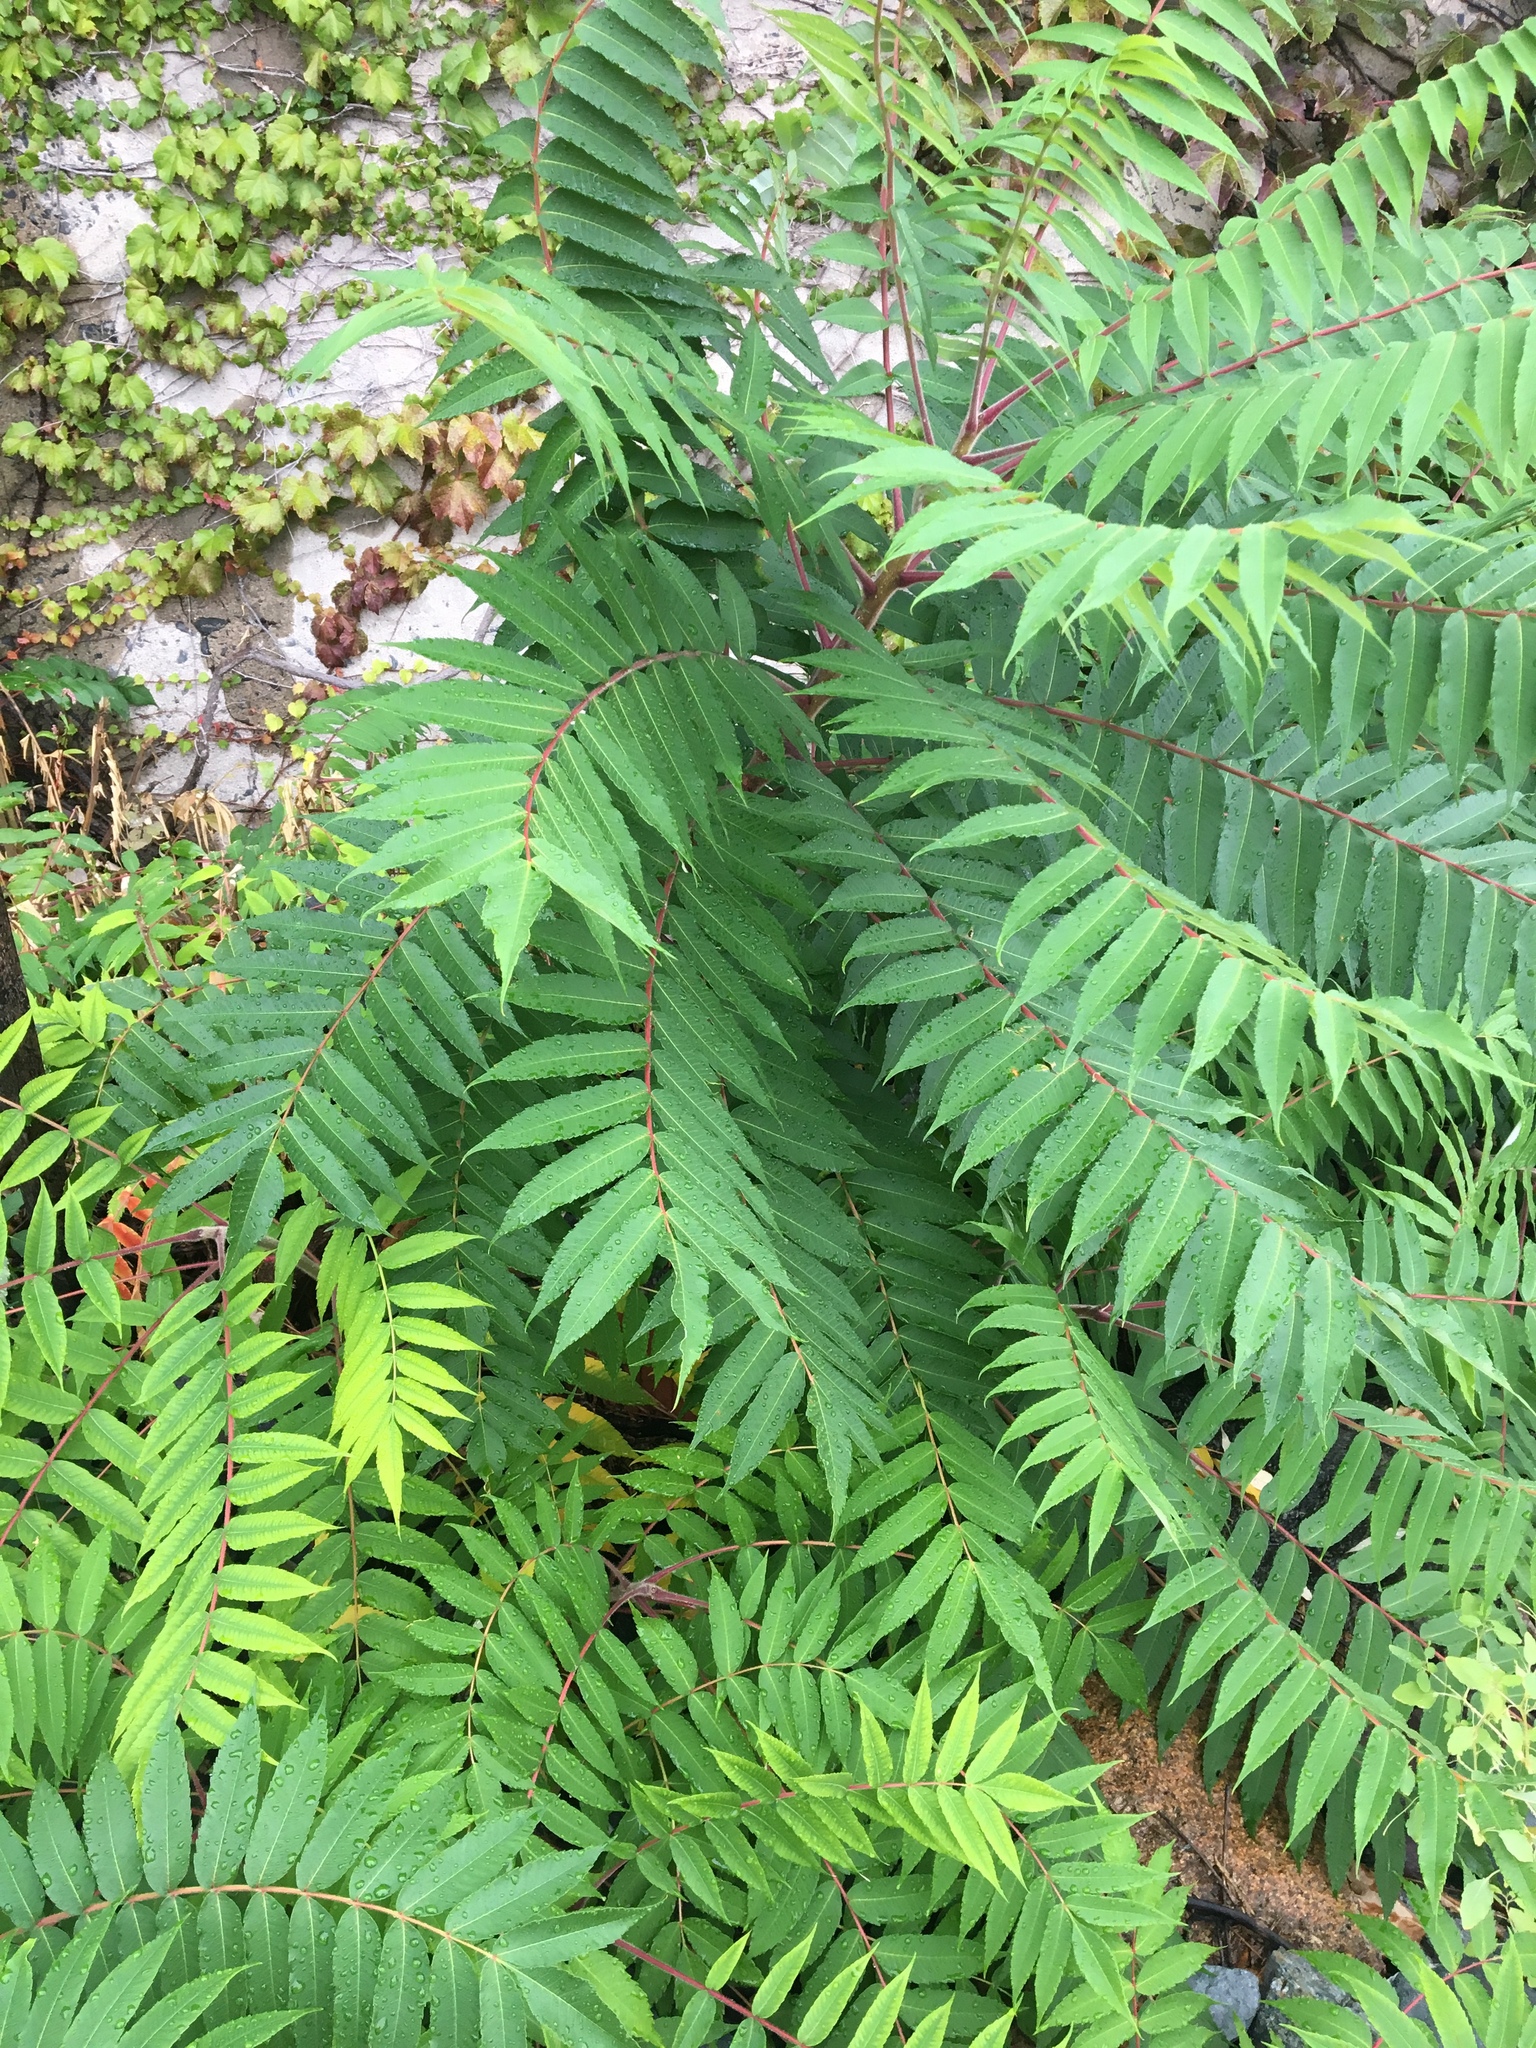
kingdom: Plantae
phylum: Tracheophyta
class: Magnoliopsida
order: Sapindales
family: Anacardiaceae
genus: Rhus
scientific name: Rhus typhina
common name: Staghorn sumac
